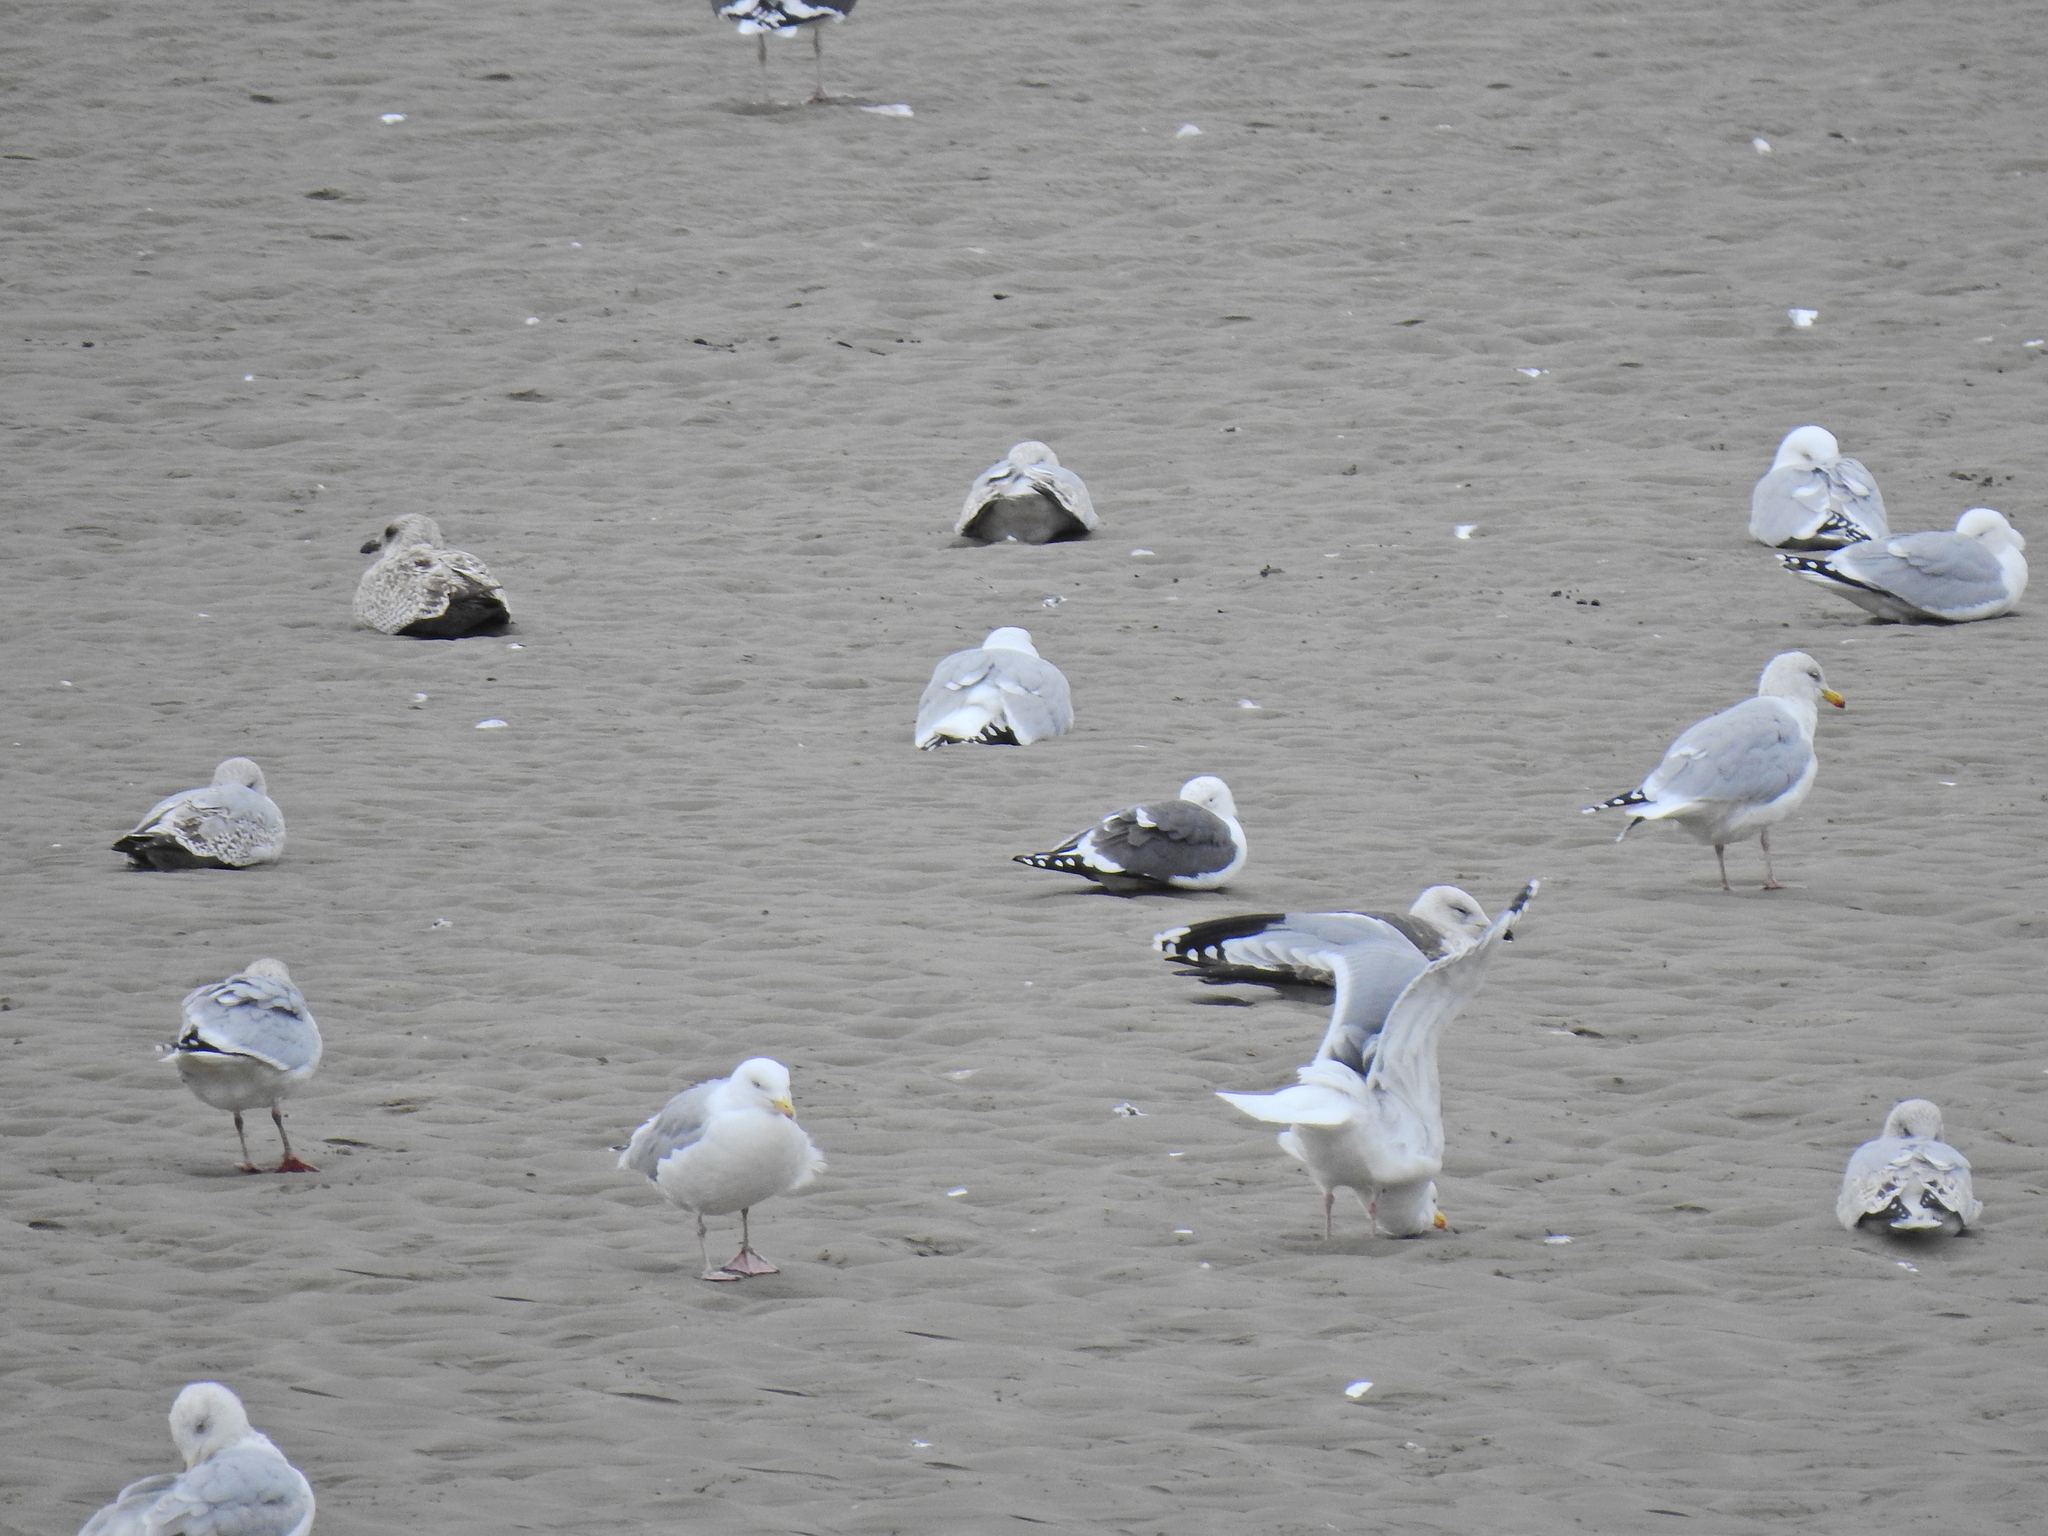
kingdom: Animalia
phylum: Chordata
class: Aves
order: Charadriiformes
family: Laridae
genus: Larus
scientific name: Larus argentatus
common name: Herring gull
